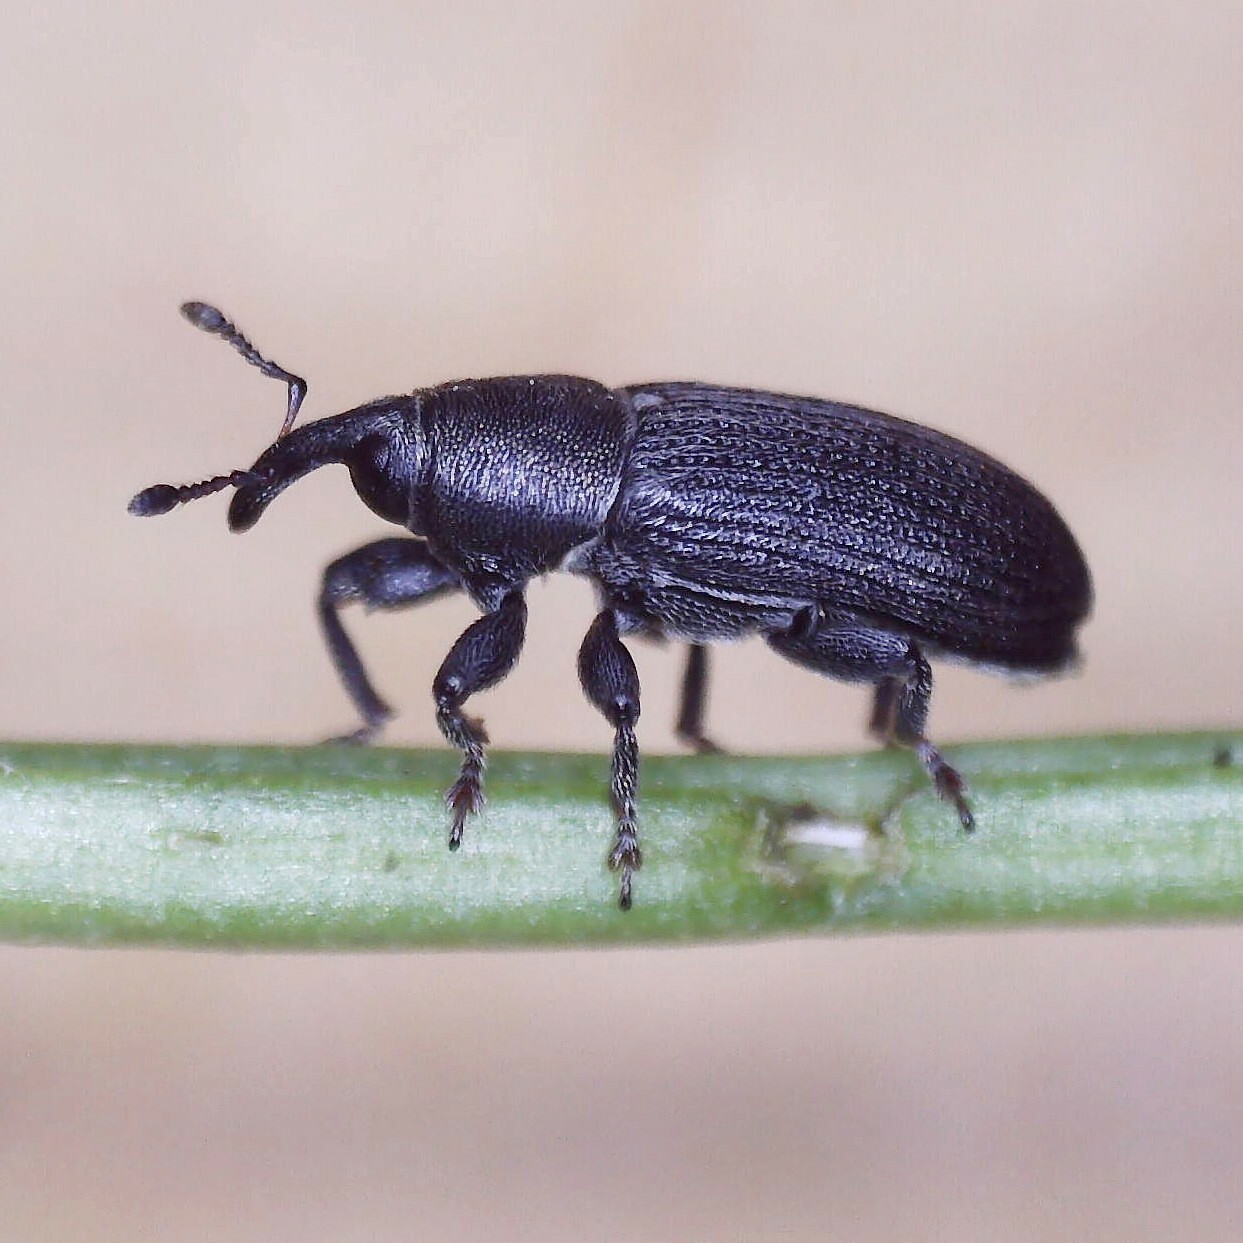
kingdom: Animalia
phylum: Arthropoda
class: Insecta
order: Coleoptera
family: Curculionidae
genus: Mecinus
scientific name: Mecinus pyraster
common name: Weevil
